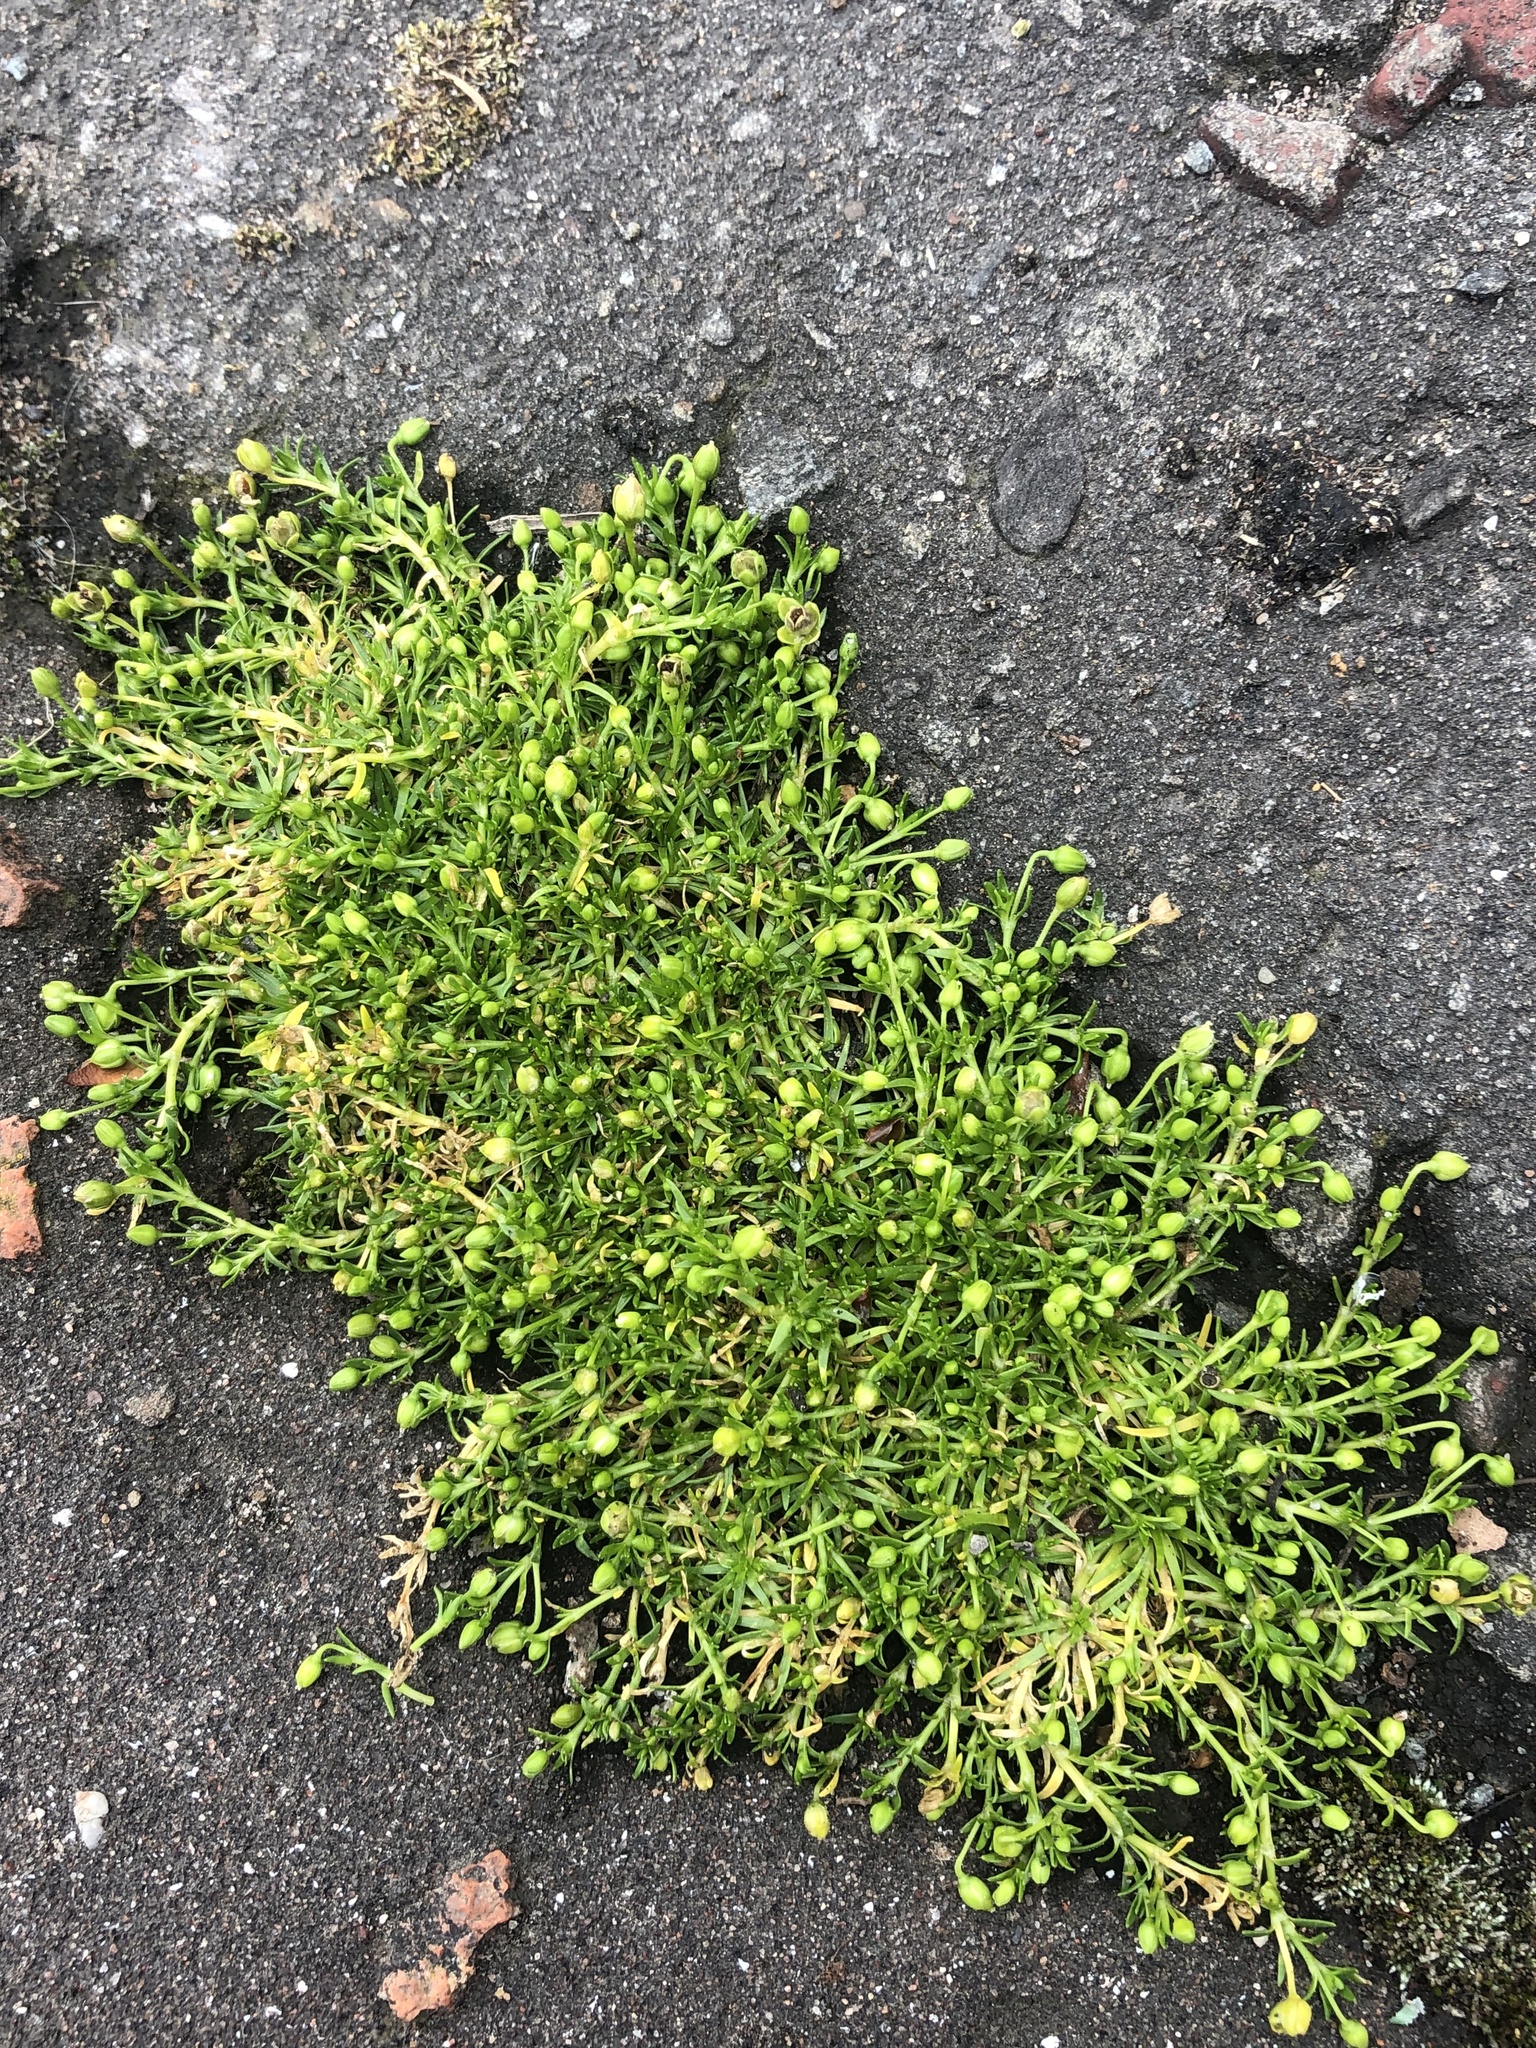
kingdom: Plantae
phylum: Tracheophyta
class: Magnoliopsida
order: Caryophyllales
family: Caryophyllaceae
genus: Sagina
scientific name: Sagina procumbens
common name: Procumbent pearlwort
